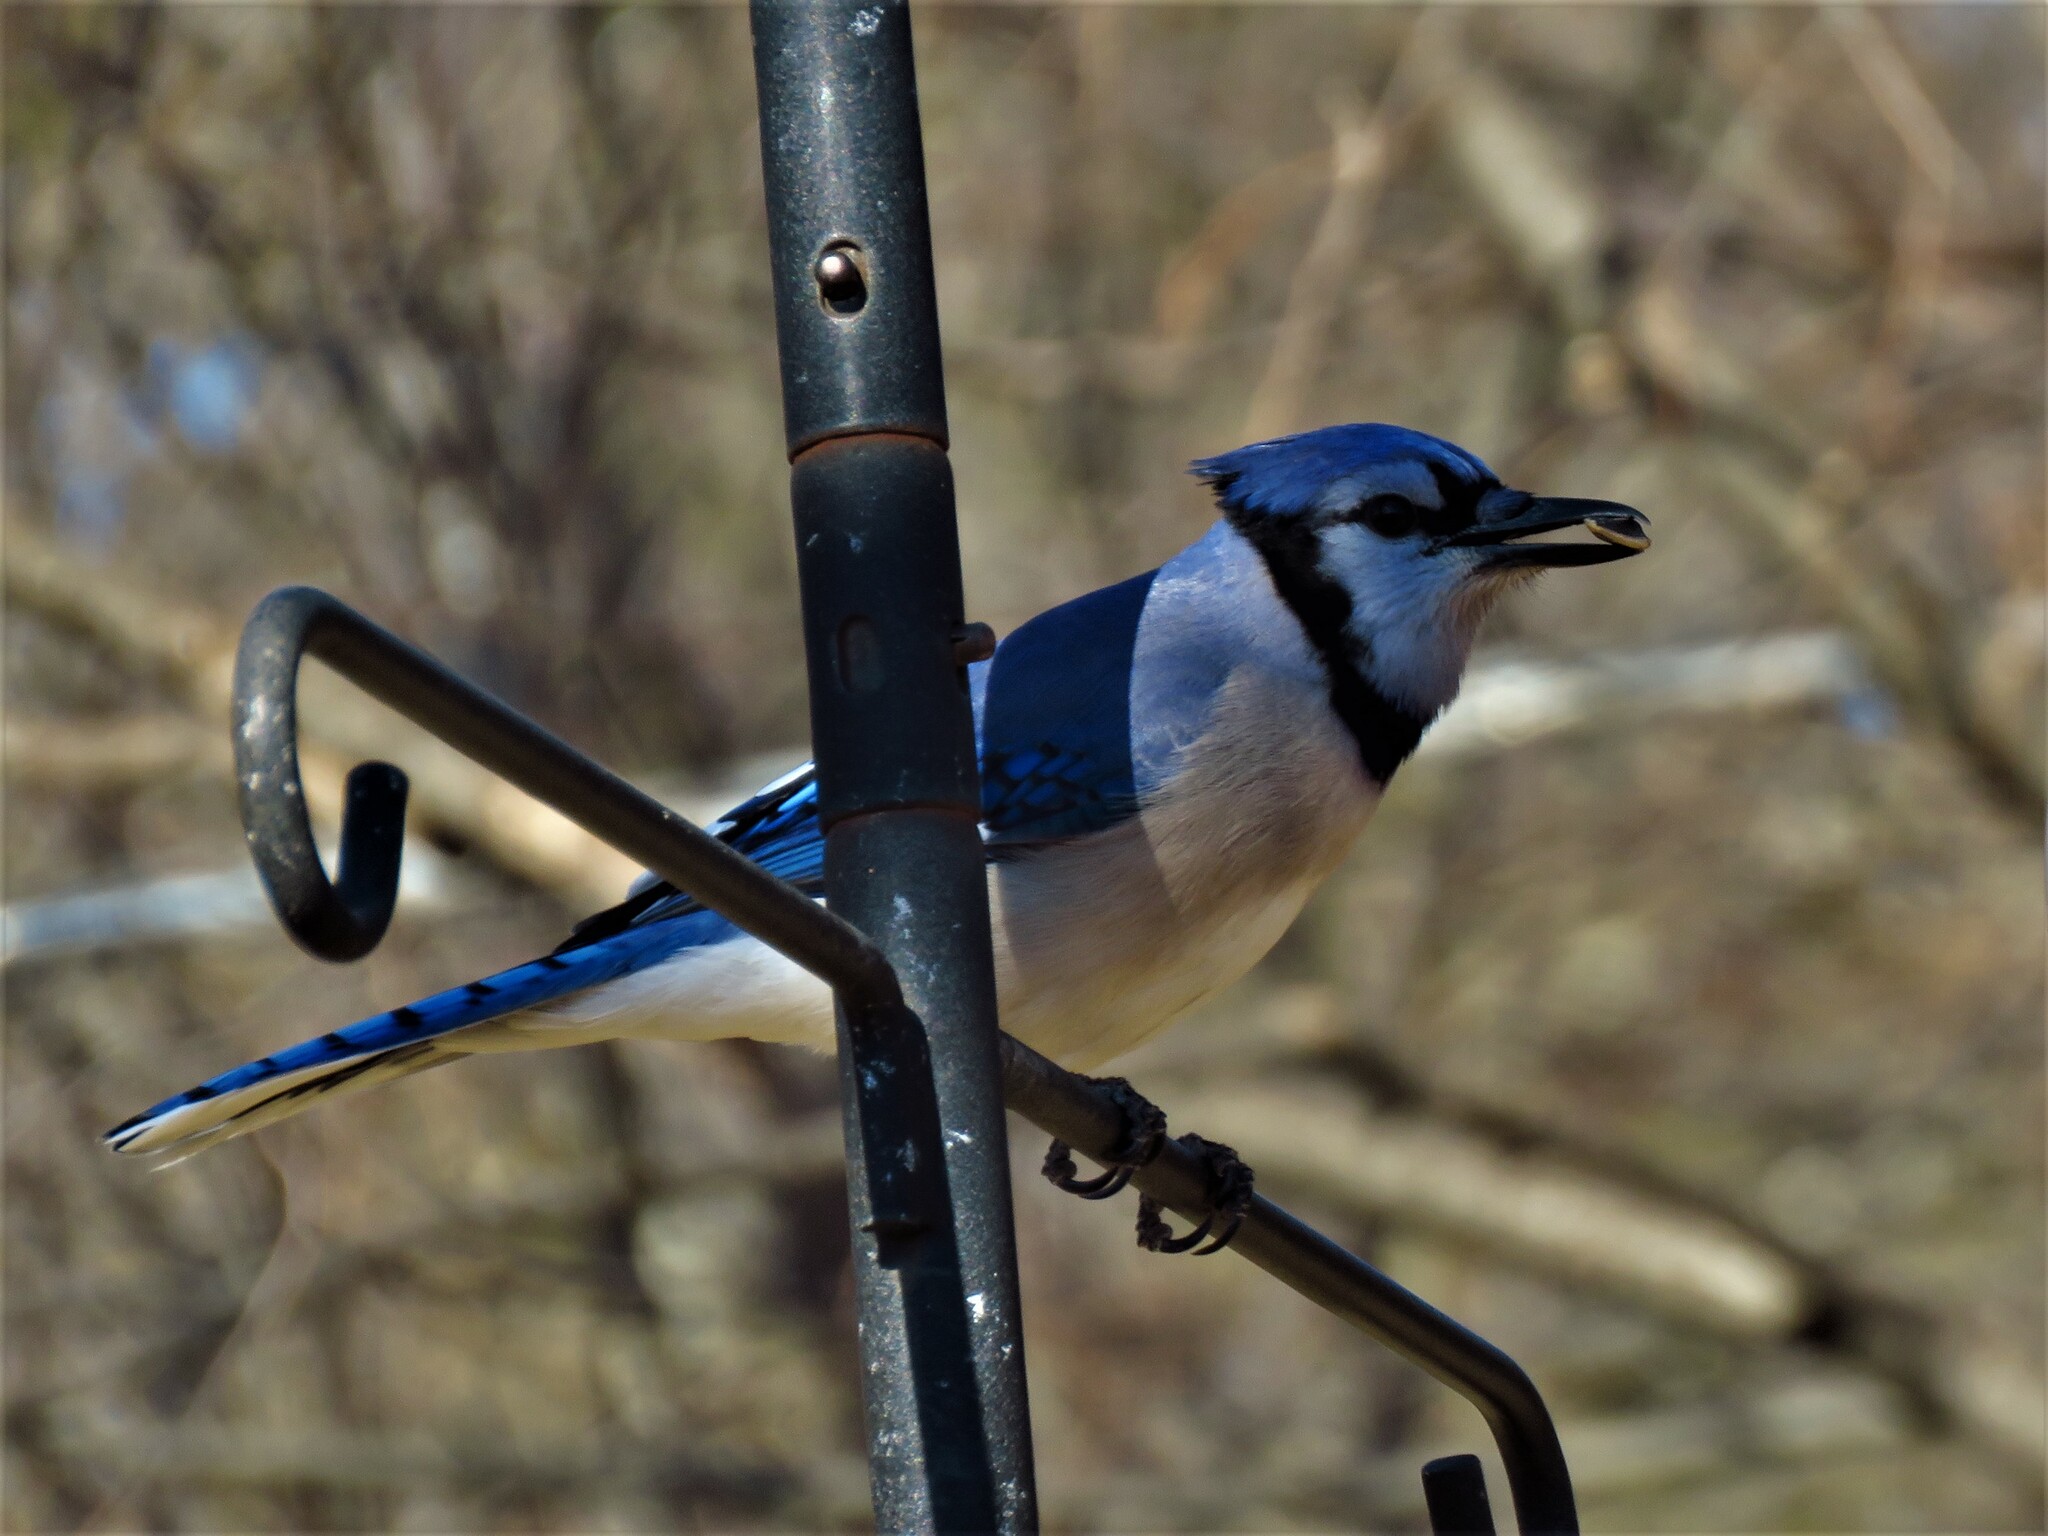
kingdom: Animalia
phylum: Chordata
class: Aves
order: Passeriformes
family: Corvidae
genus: Cyanocitta
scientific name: Cyanocitta cristata
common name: Blue jay
